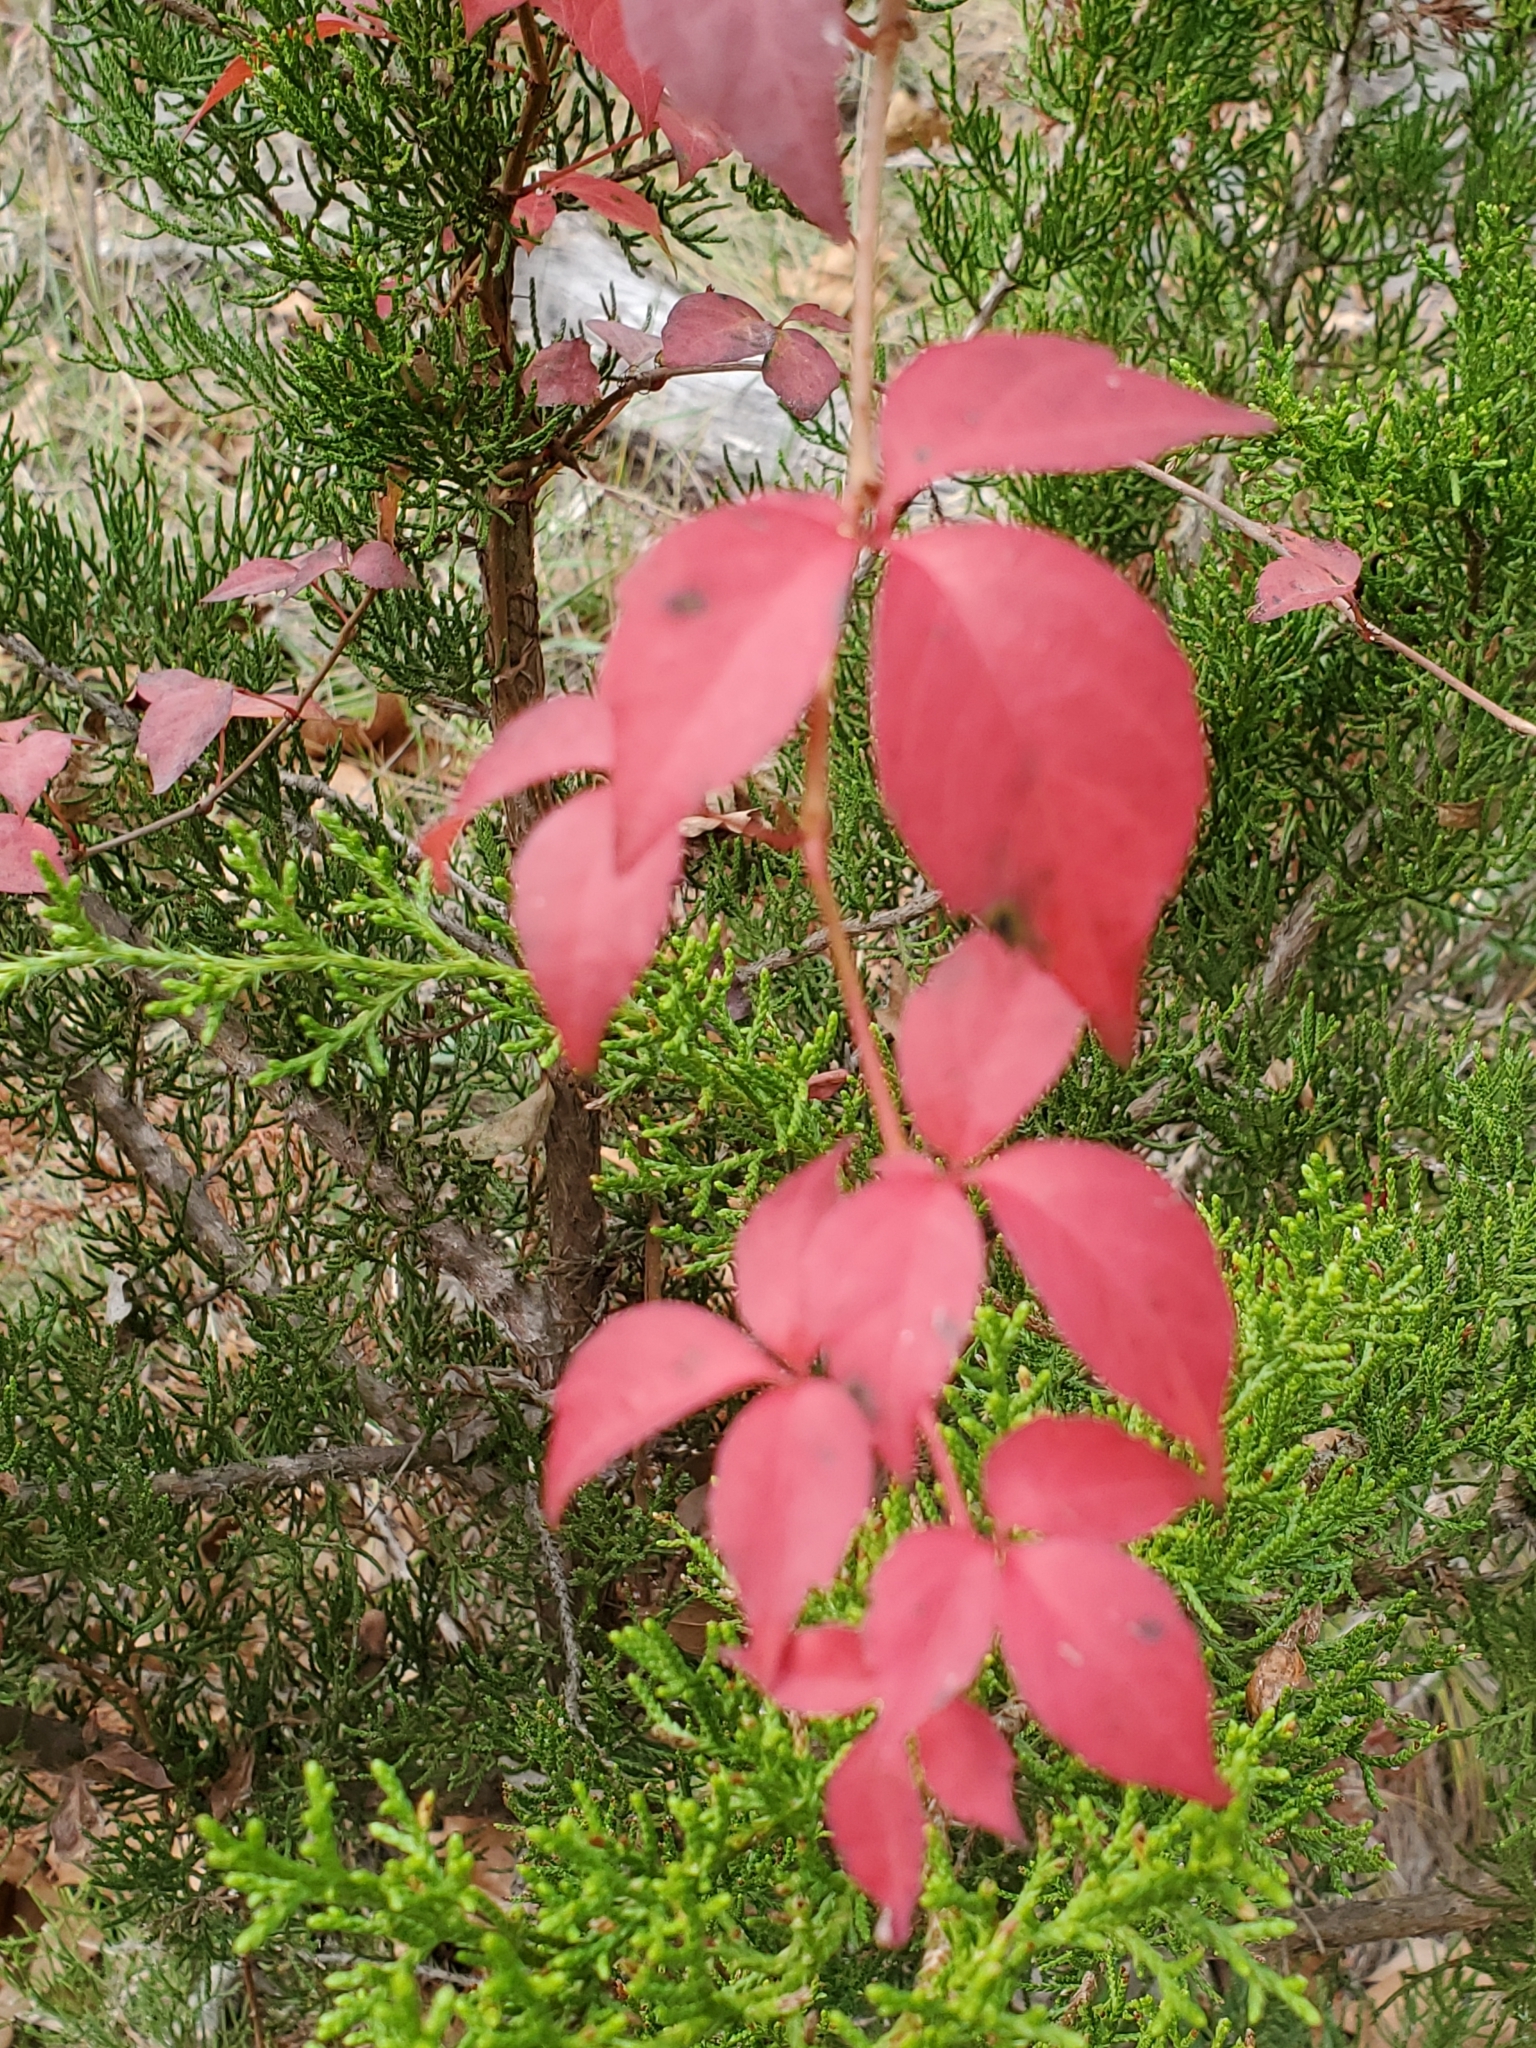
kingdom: Plantae
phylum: Tracheophyta
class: Magnoliopsida
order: Vitales
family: Vitaceae
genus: Parthenocissus
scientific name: Parthenocissus quinquefolia
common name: Virginia-creeper
